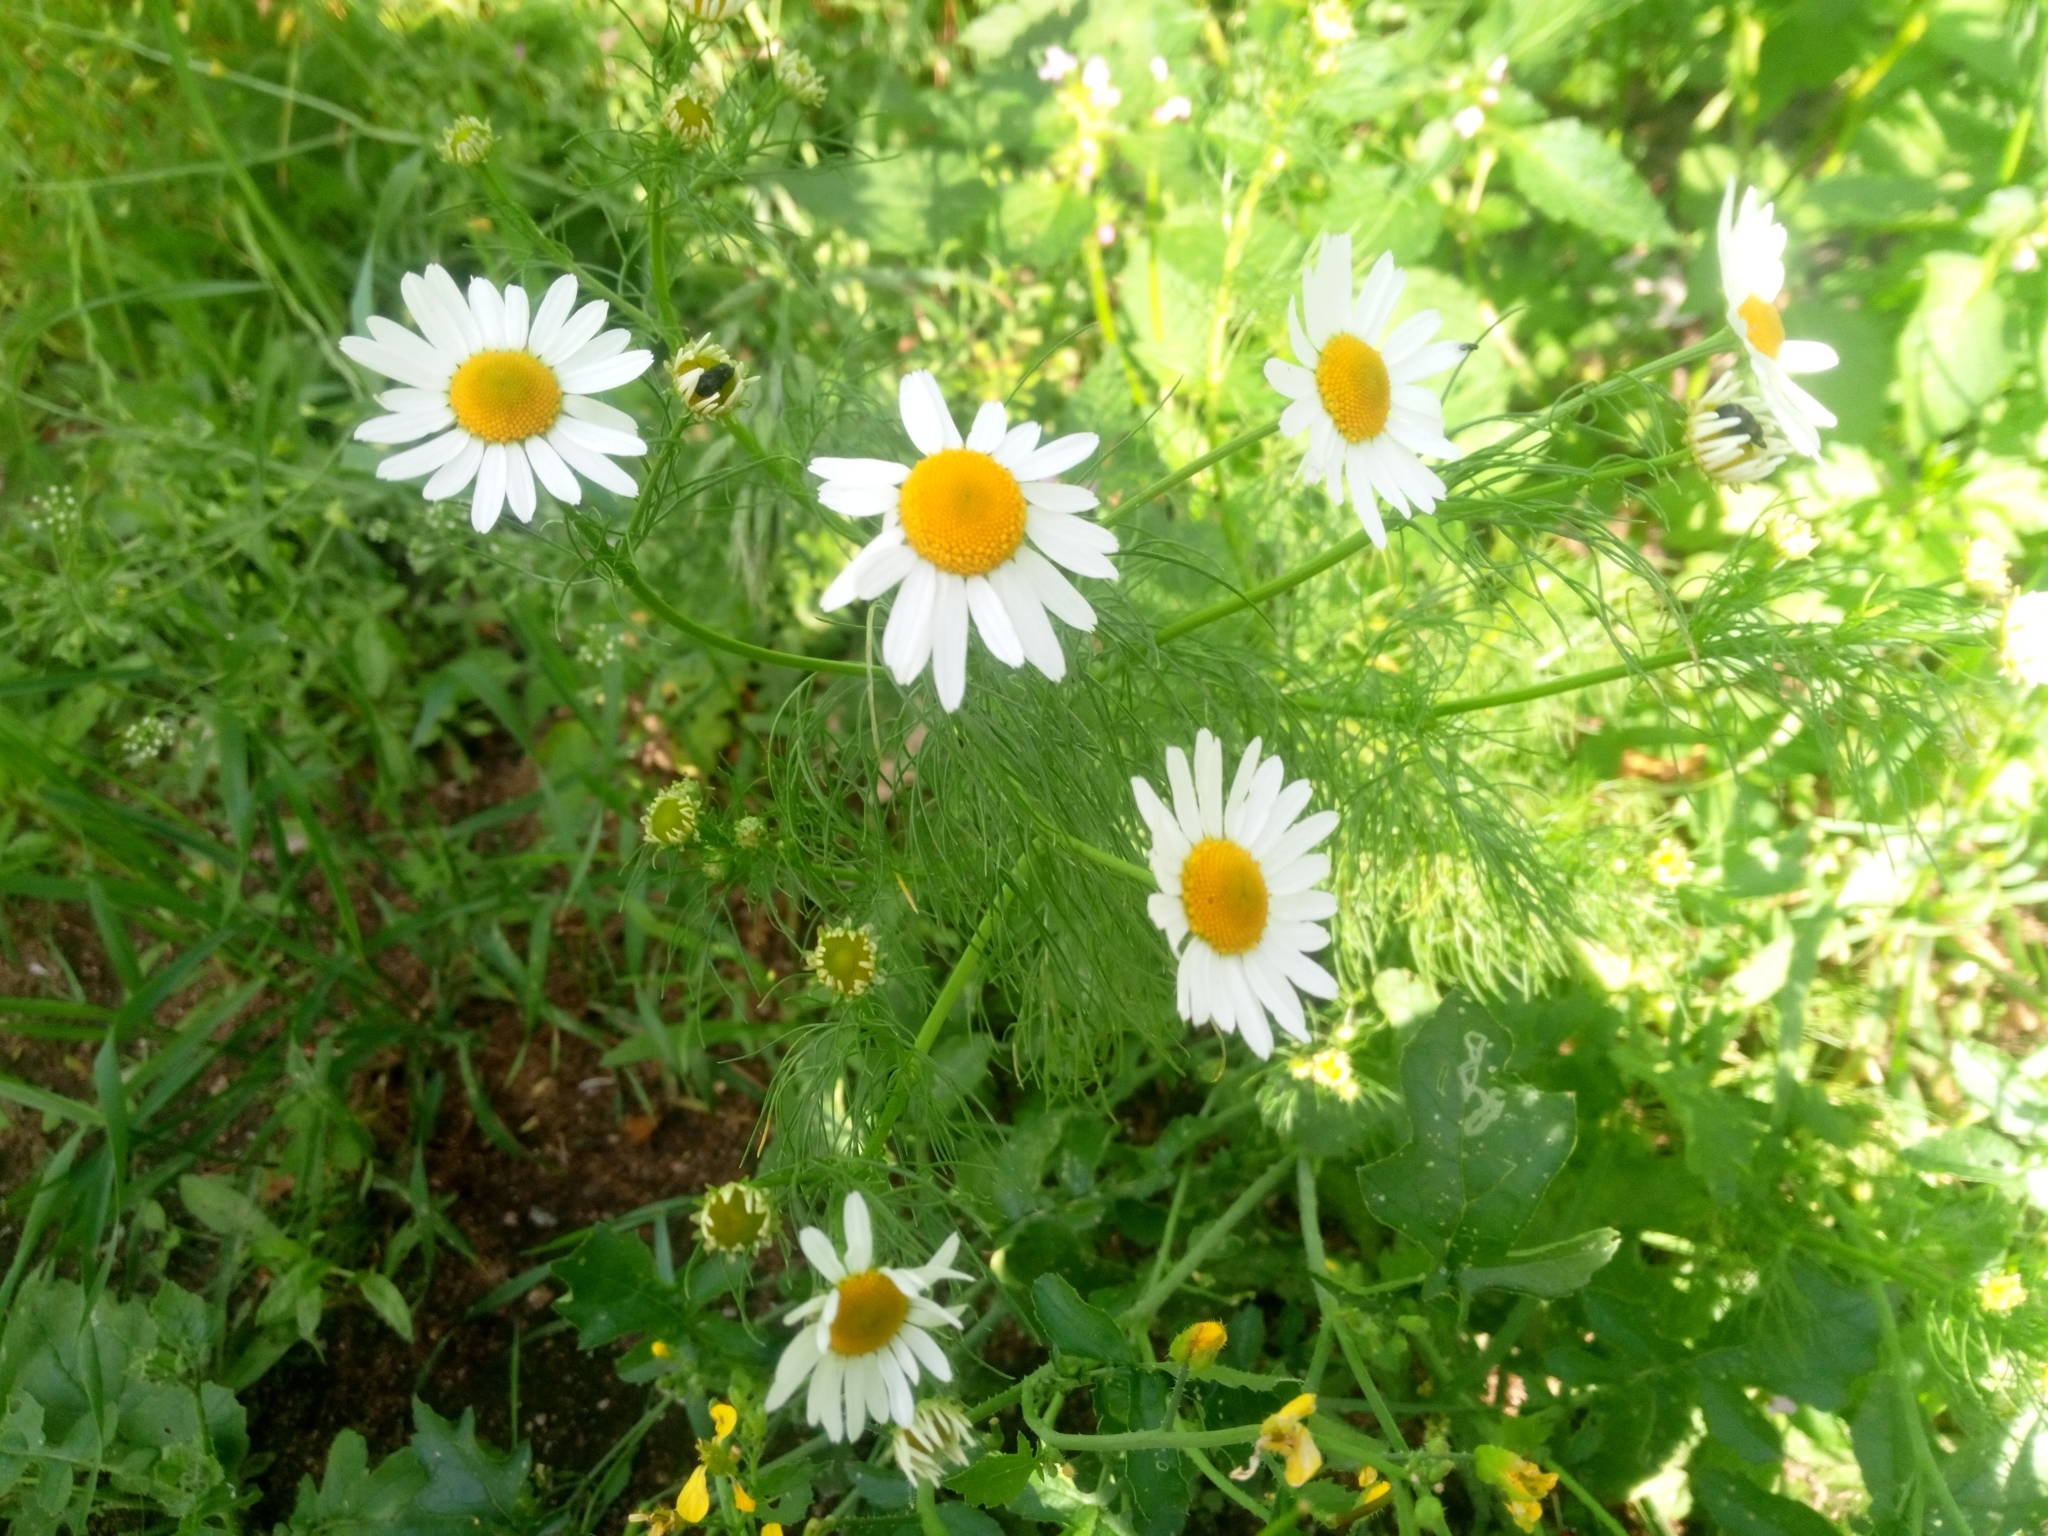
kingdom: Plantae
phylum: Tracheophyta
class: Magnoliopsida
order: Asterales
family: Asteraceae
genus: Tripleurospermum
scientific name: Tripleurospermum inodorum
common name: Scentless mayweed
